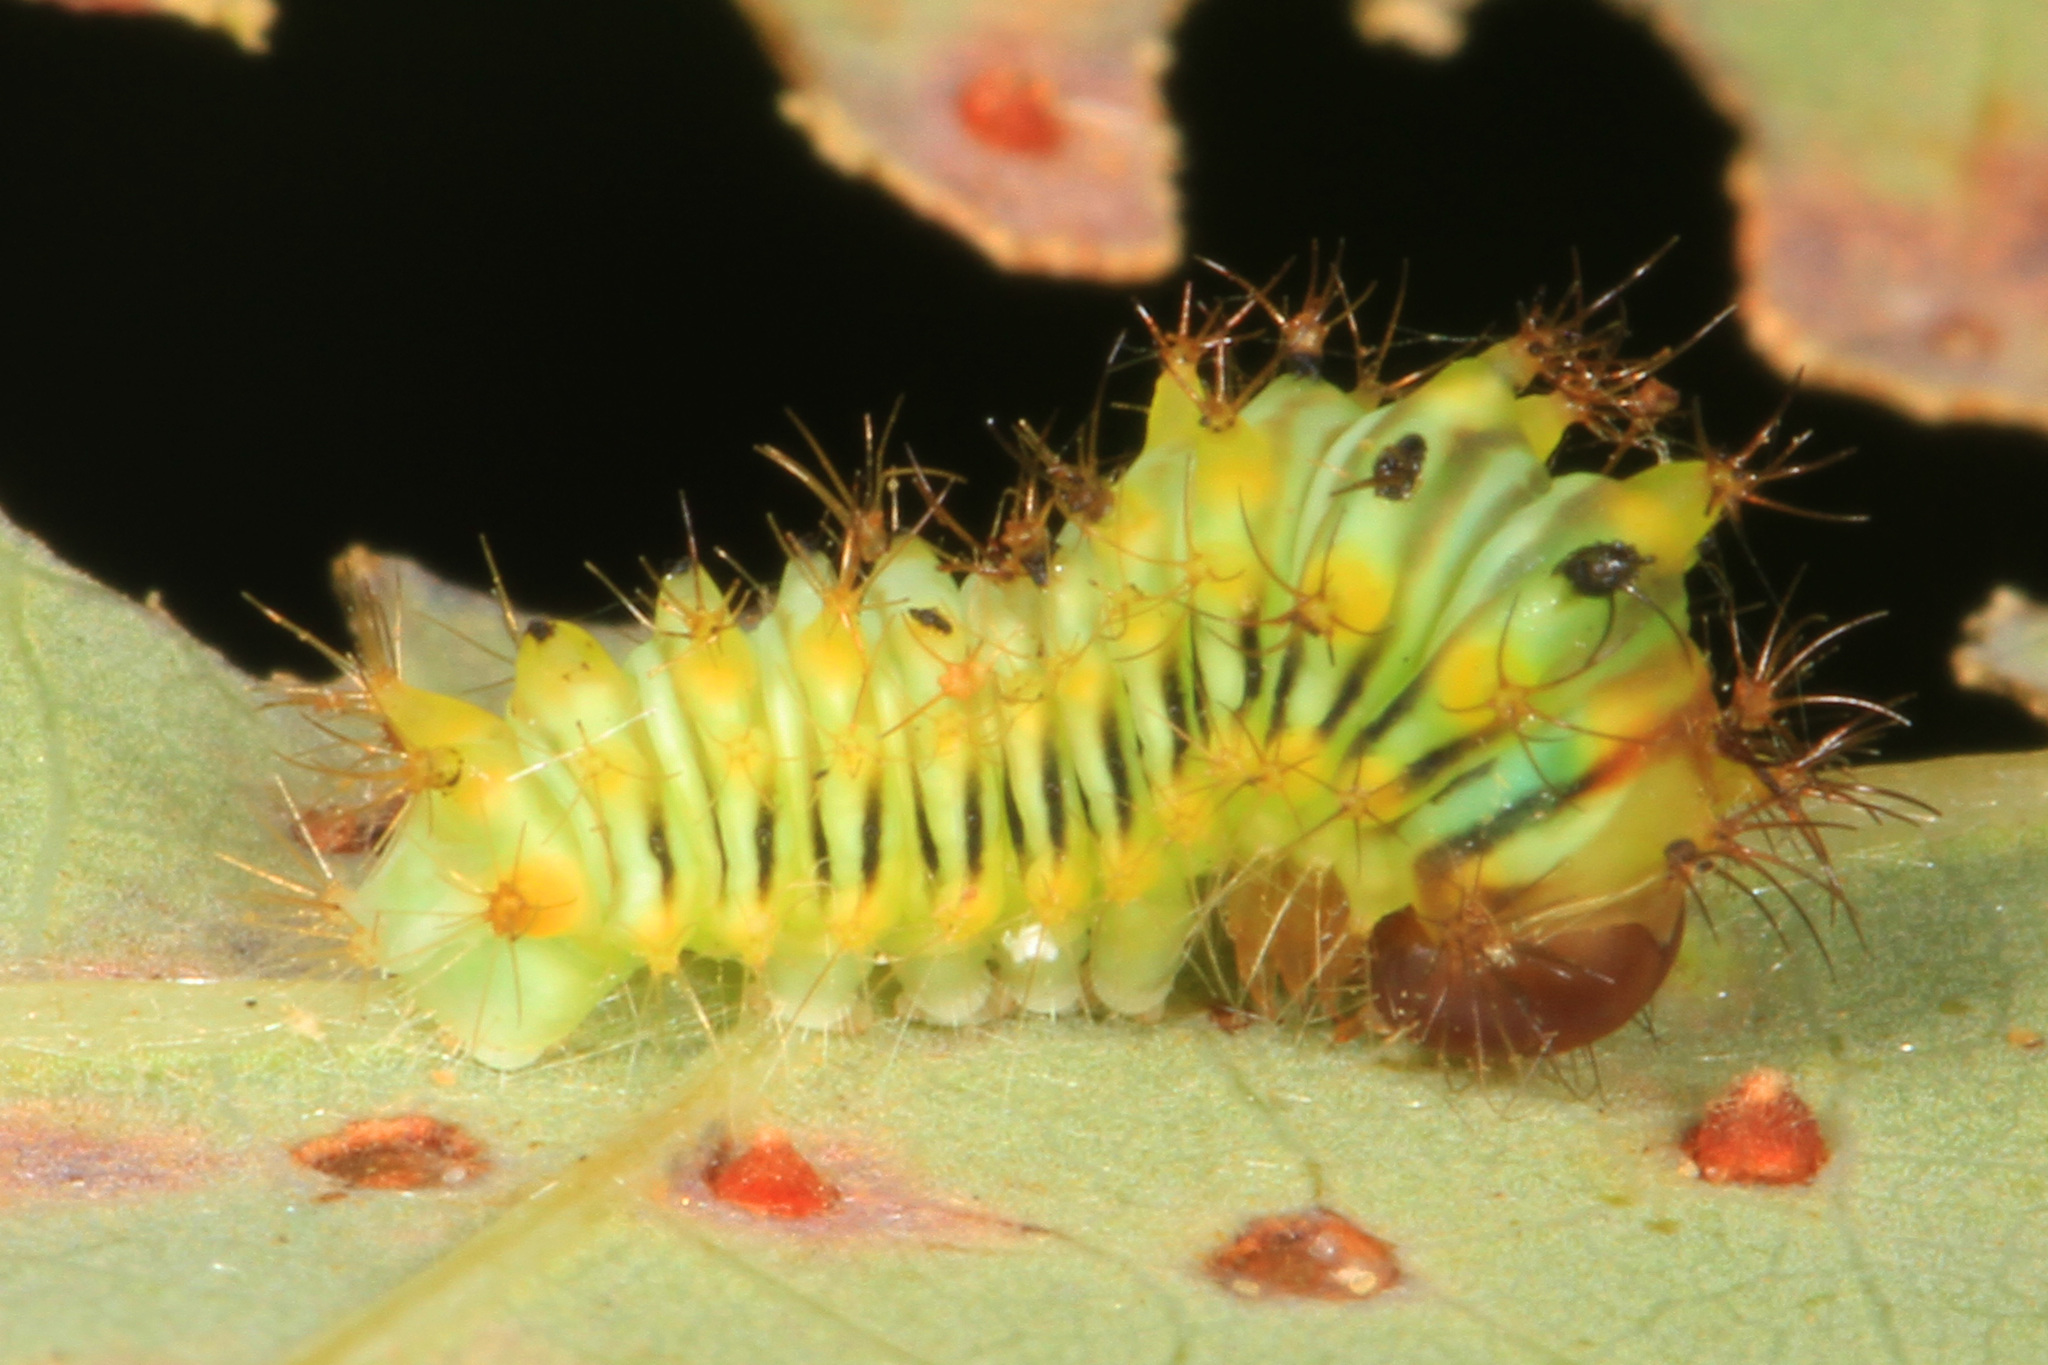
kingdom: Animalia
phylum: Arthropoda
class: Insecta
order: Lepidoptera
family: Saturniidae
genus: Antheraea
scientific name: Antheraea polyphemus
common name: Polyphemus moth
